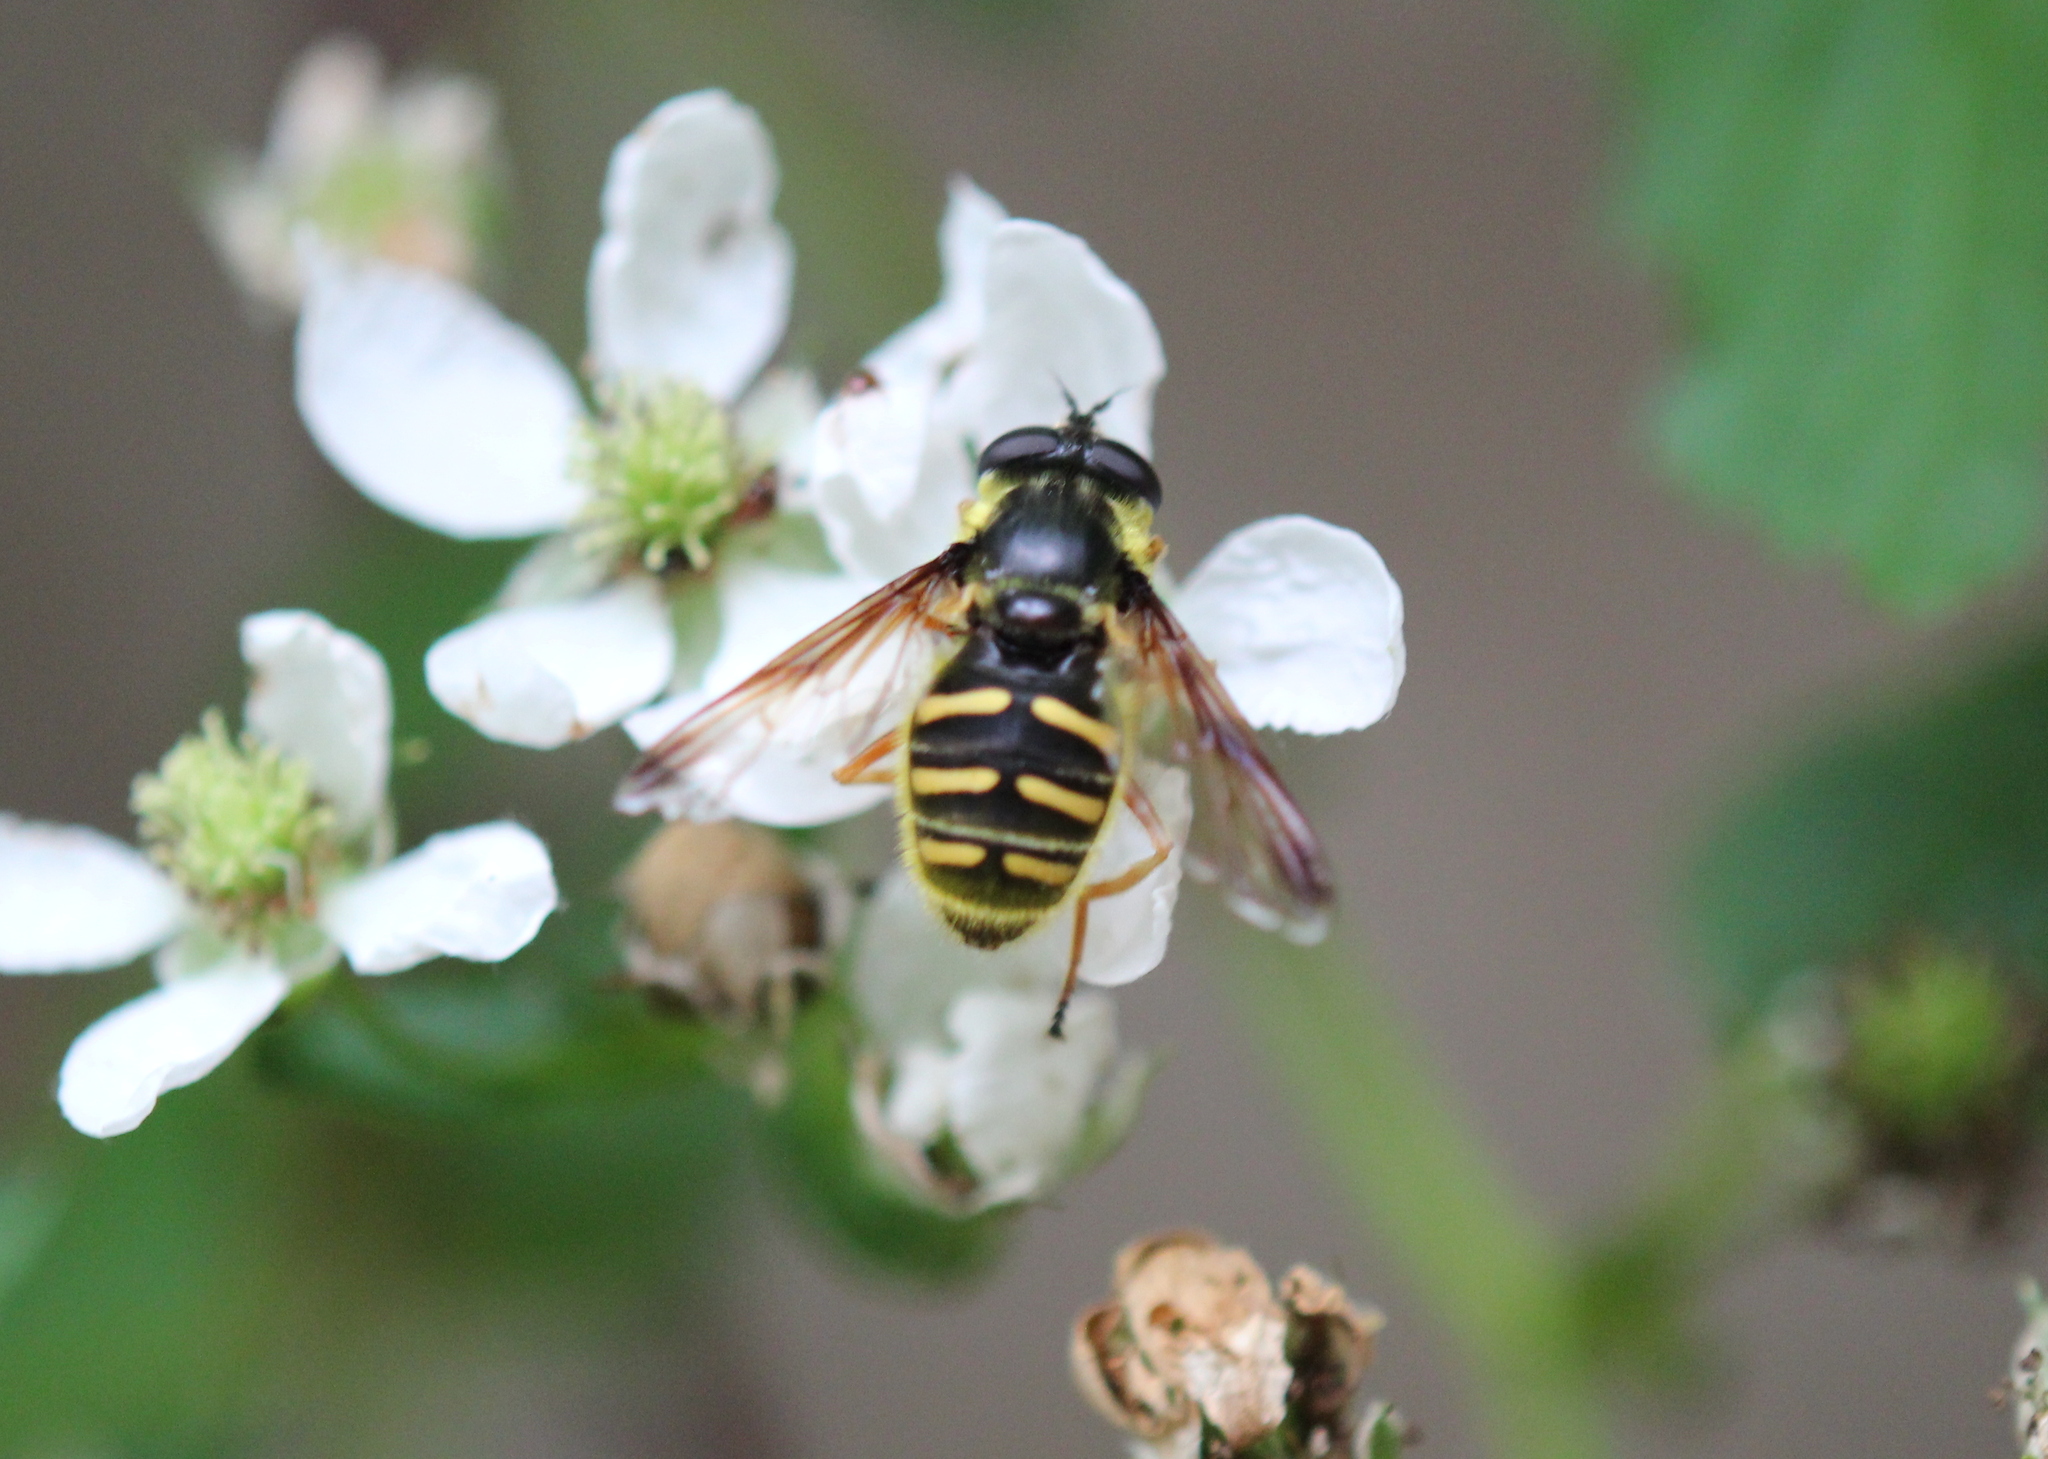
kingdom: Animalia
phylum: Arthropoda
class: Insecta
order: Diptera
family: Syrphidae
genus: Sericomyia
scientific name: Sericomyia chrysotoxoides
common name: Oblique-banded pond fly
